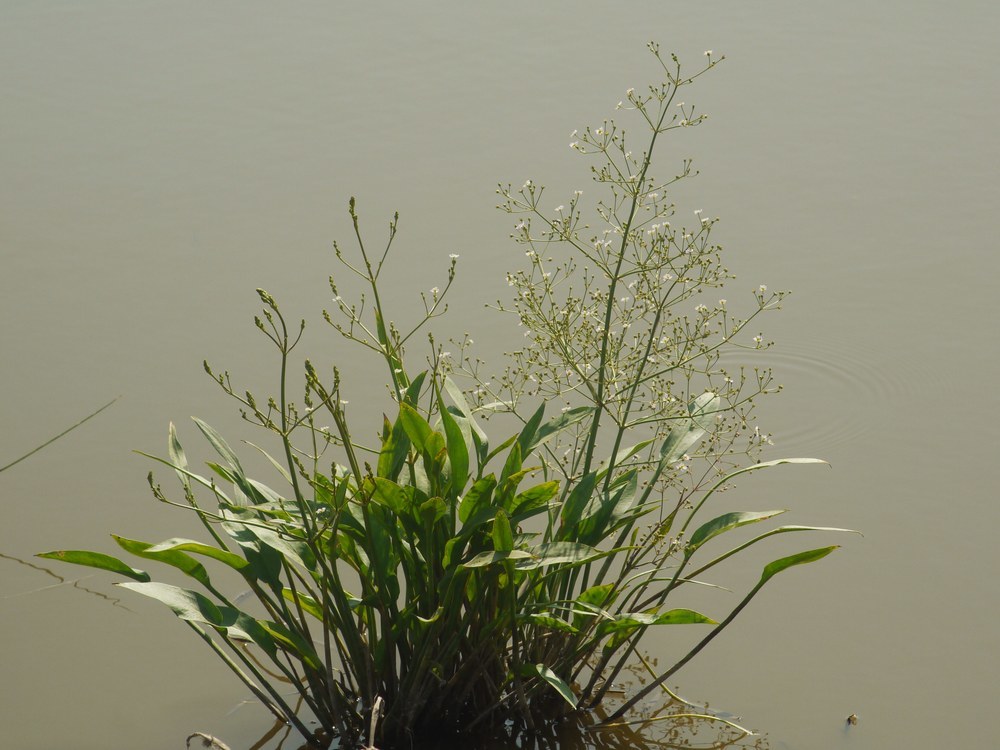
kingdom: Plantae
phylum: Tracheophyta
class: Liliopsida
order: Alismatales
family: Alismataceae
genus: Alisma
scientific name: Alisma plantago-aquatica
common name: Water-plantain
